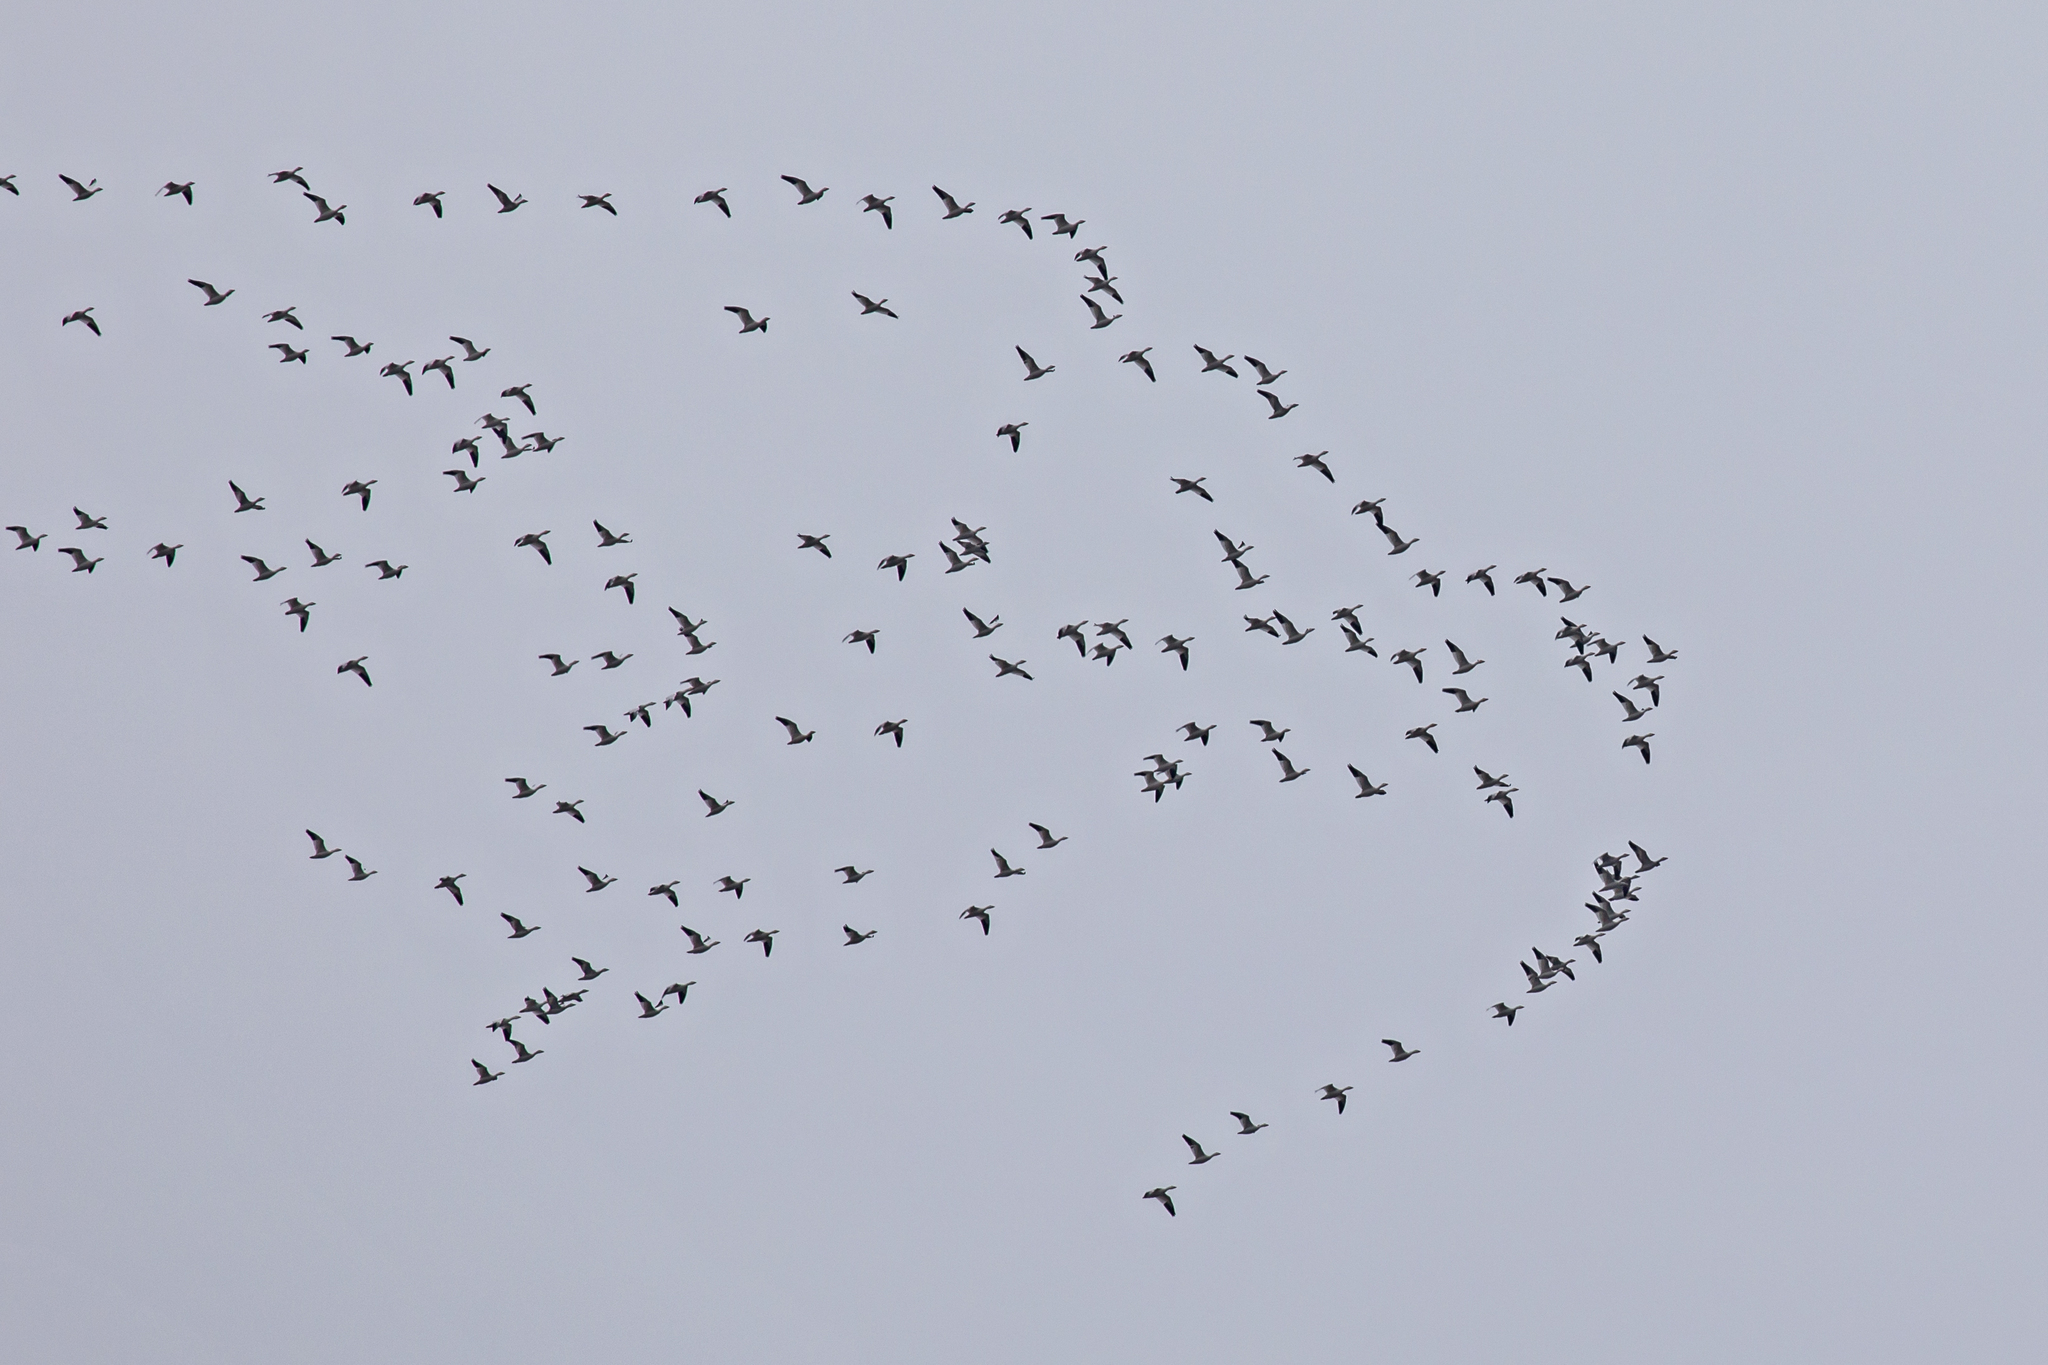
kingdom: Animalia
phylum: Chordata
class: Aves
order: Anseriformes
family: Anatidae
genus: Anser
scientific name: Anser caerulescens
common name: Snow goose
